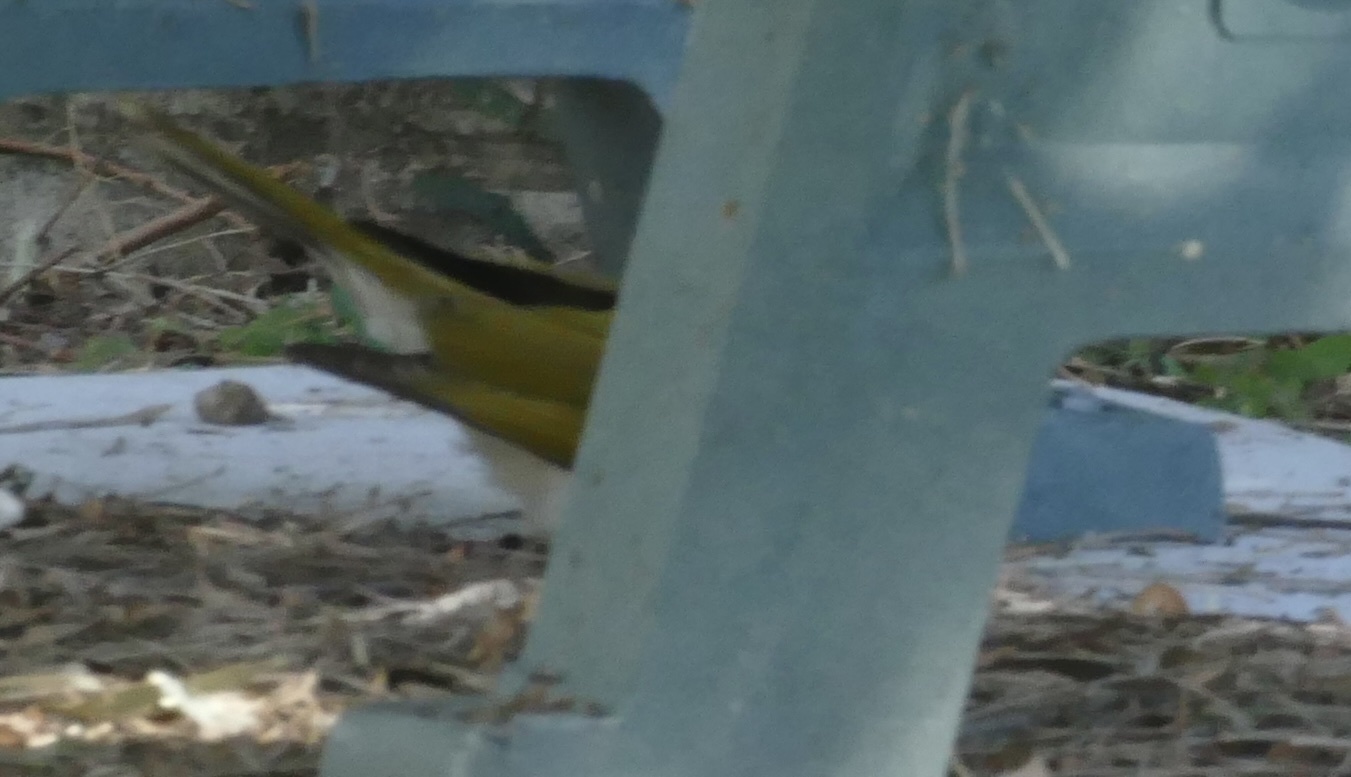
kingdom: Animalia
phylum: Chordata
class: Aves
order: Passeriformes
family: Meliphagidae
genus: Entomyzon
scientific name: Entomyzon cyanotis
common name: Blue-faced honeyeater
